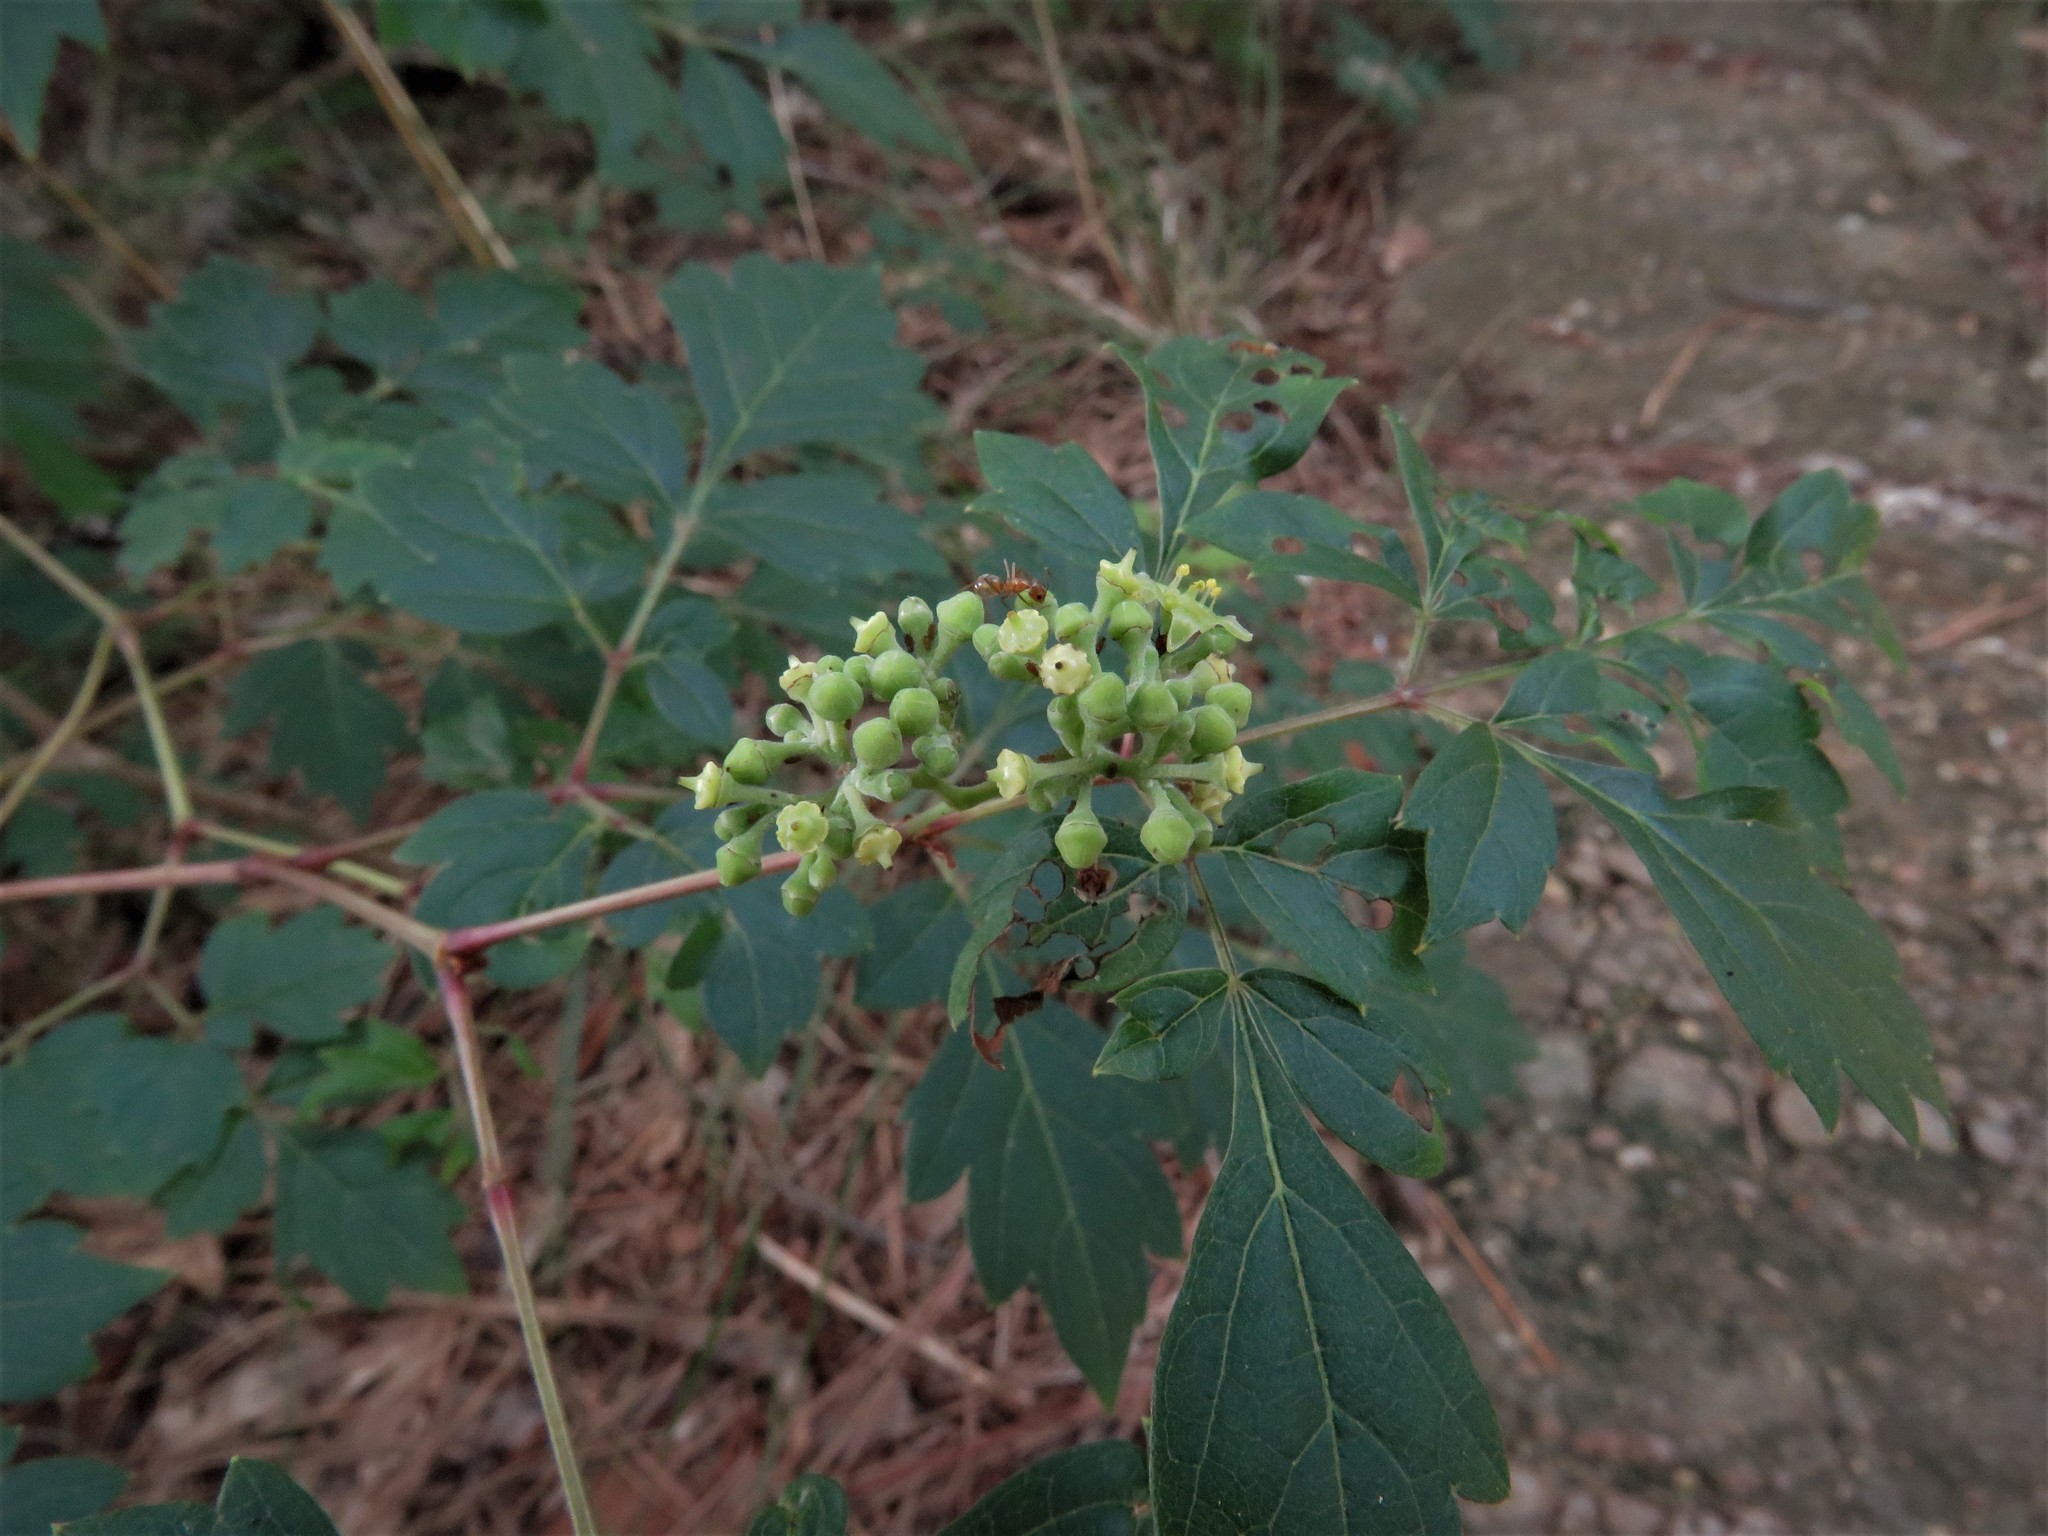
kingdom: Plantae
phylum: Tracheophyta
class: Magnoliopsida
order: Vitales
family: Vitaceae
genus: Nekemias
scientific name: Nekemias arborea
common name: Peppervine
